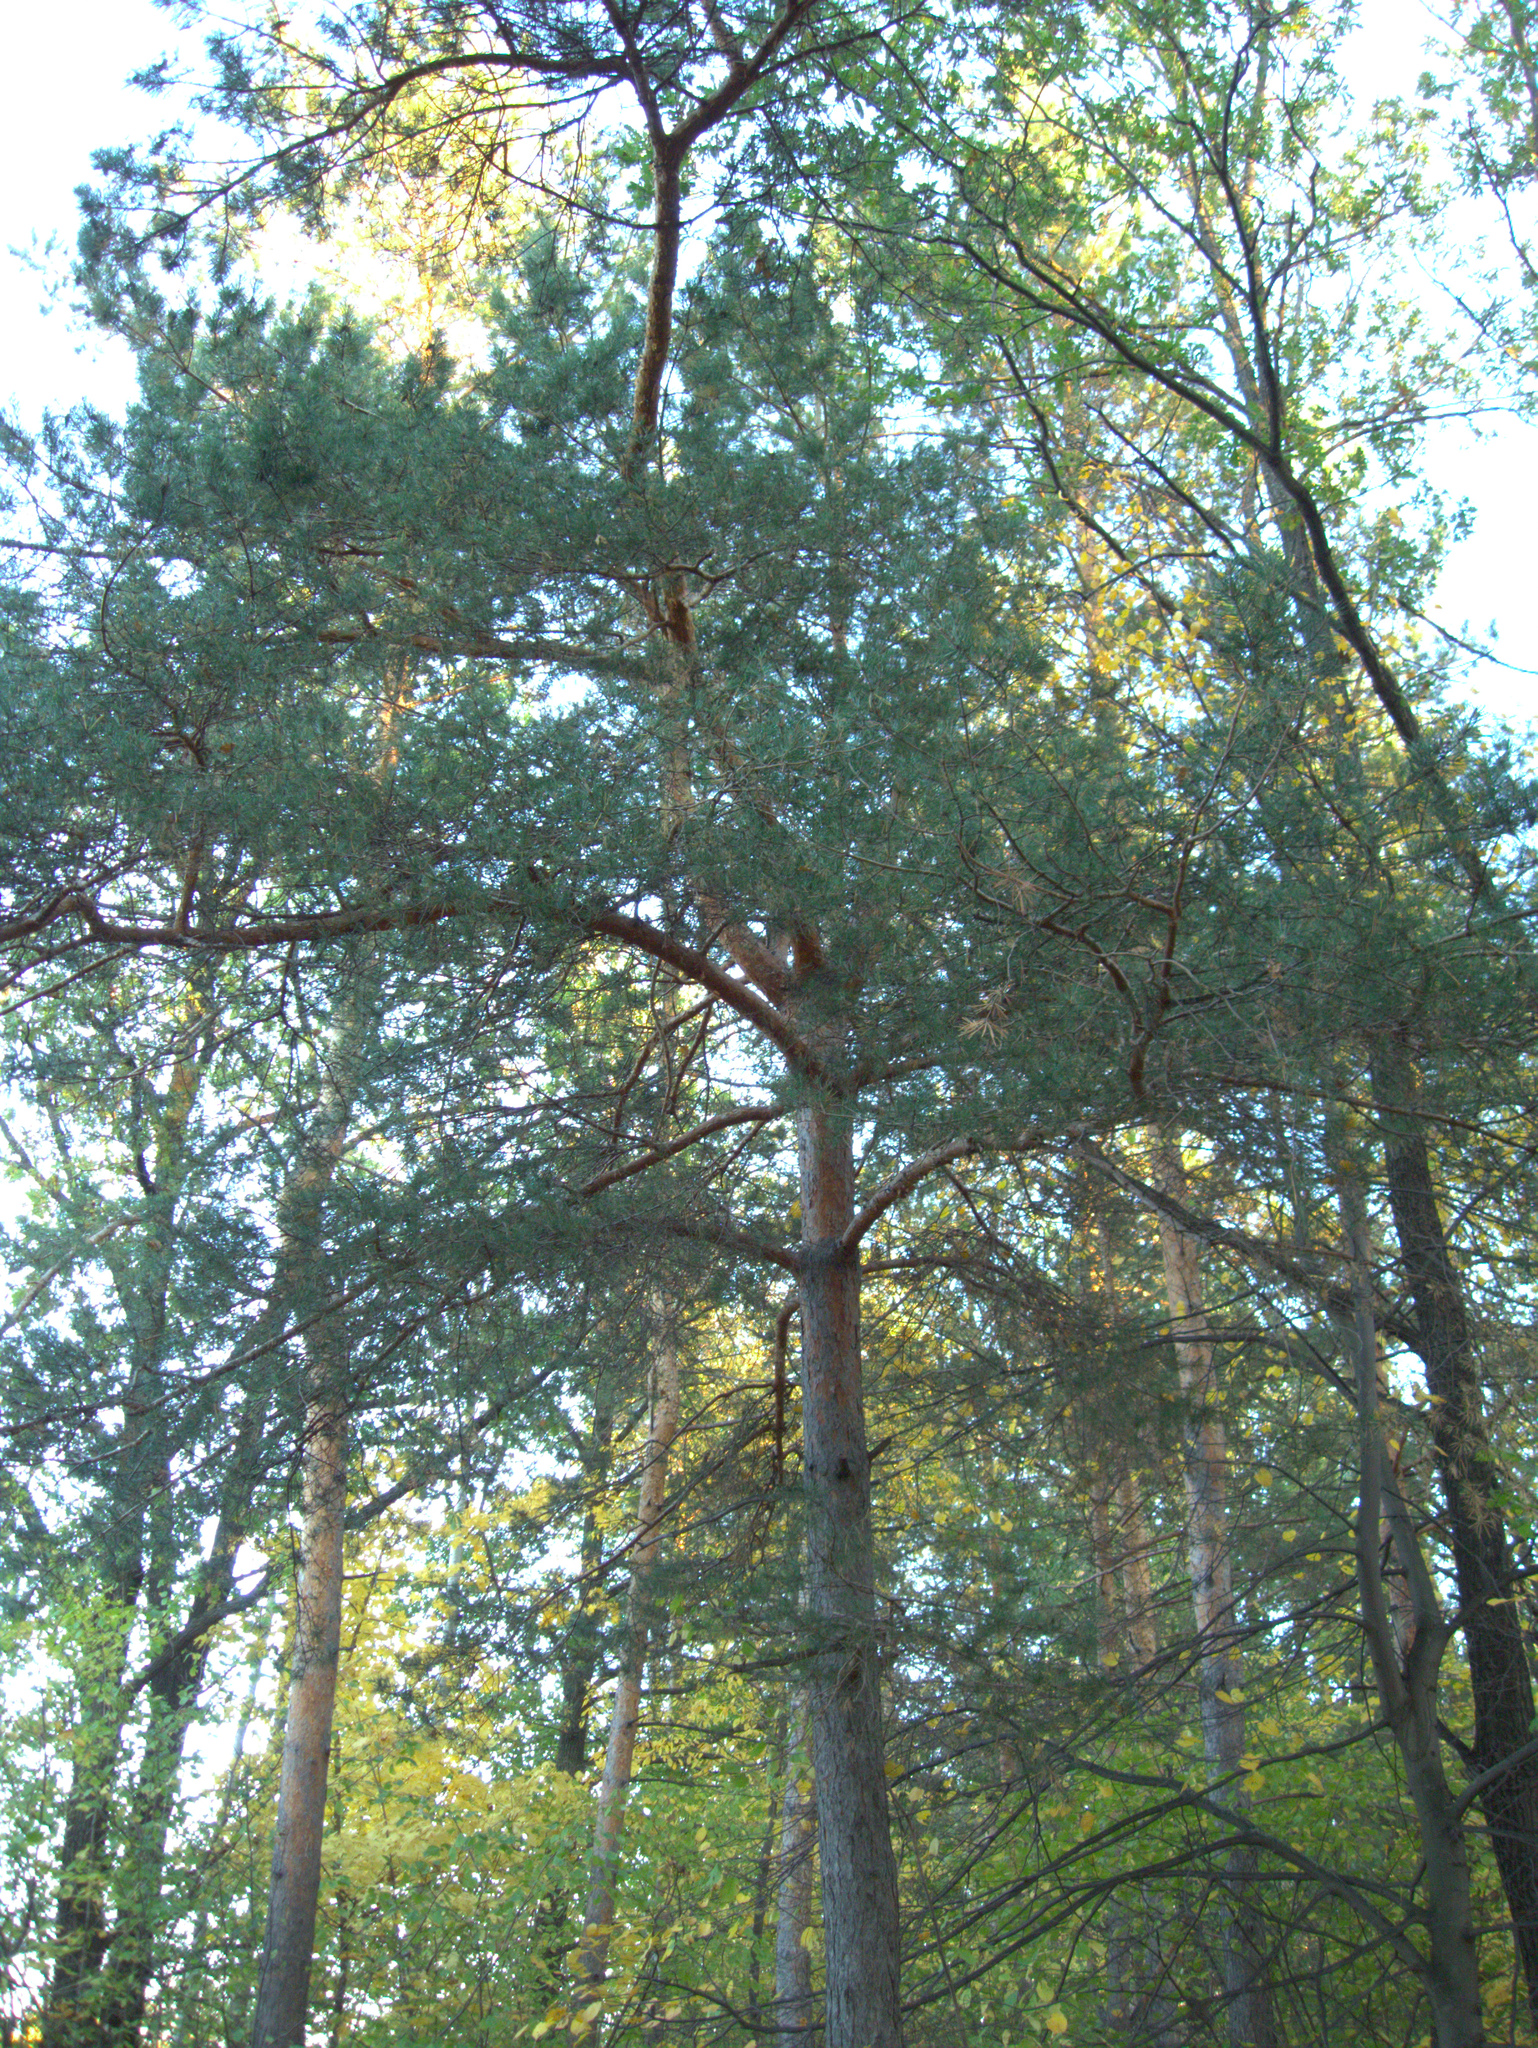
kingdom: Plantae
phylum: Tracheophyta
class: Pinopsida
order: Pinales
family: Pinaceae
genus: Pinus
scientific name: Pinus sylvestris
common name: Scots pine
